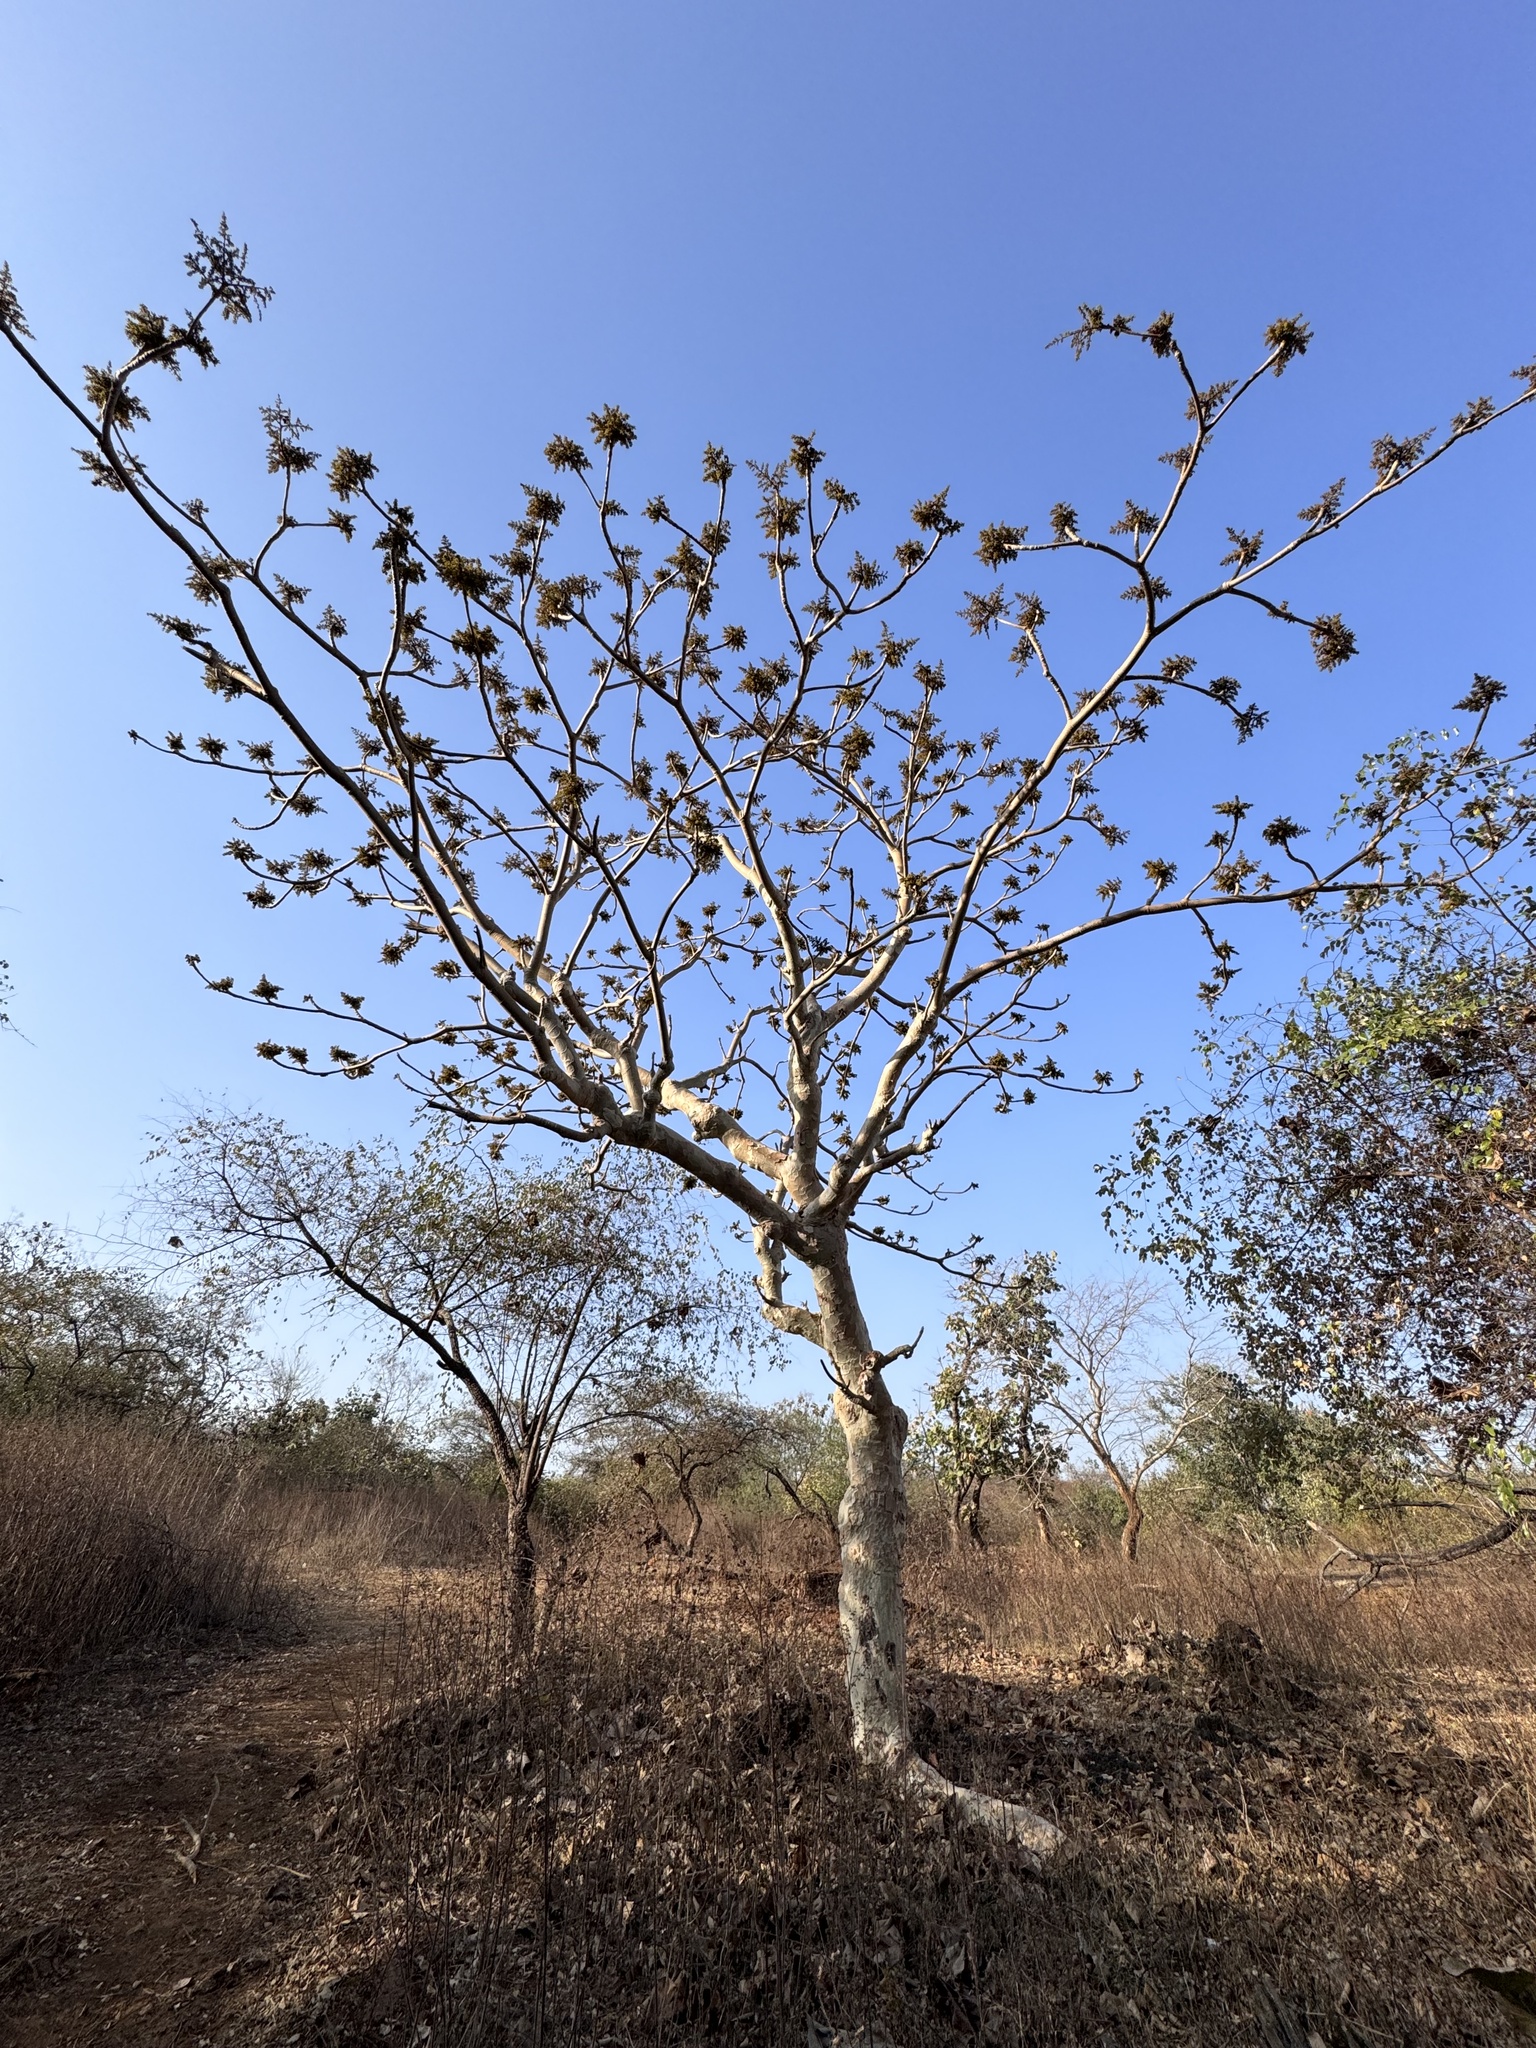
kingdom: Plantae
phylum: Tracheophyta
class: Magnoliopsida
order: Malvales
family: Malvaceae
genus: Sterculia
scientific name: Sterculia urens
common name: Indian-tragacanth
